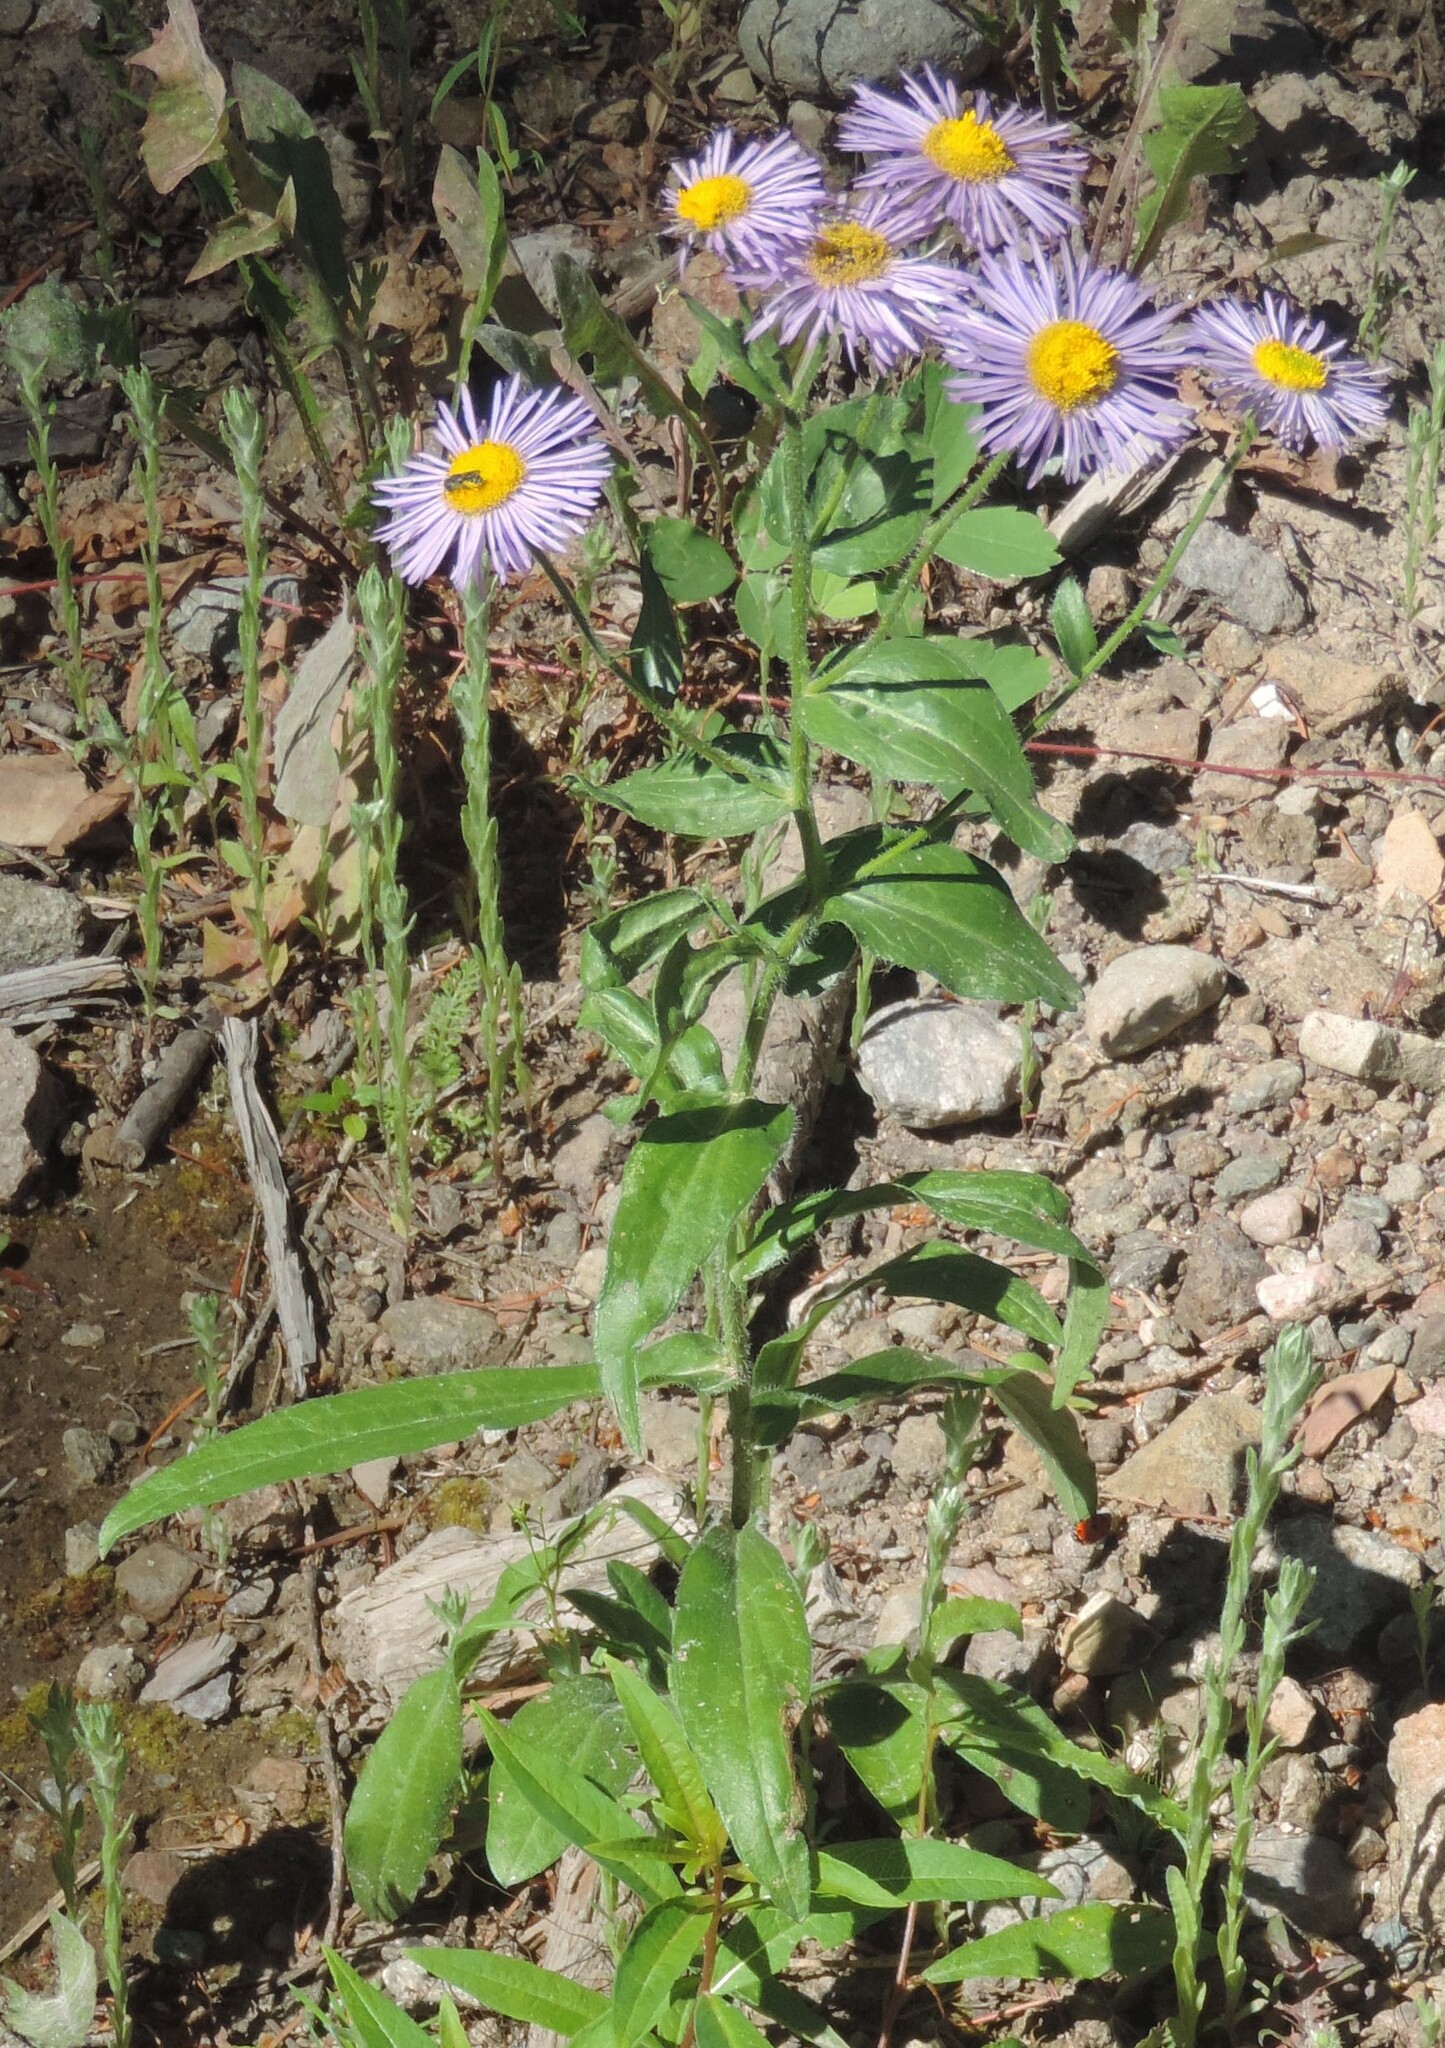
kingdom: Plantae
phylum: Tracheophyta
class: Magnoliopsida
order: Asterales
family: Asteraceae
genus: Erigeron
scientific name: Erigeron speciosus
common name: Aspen fleabane
